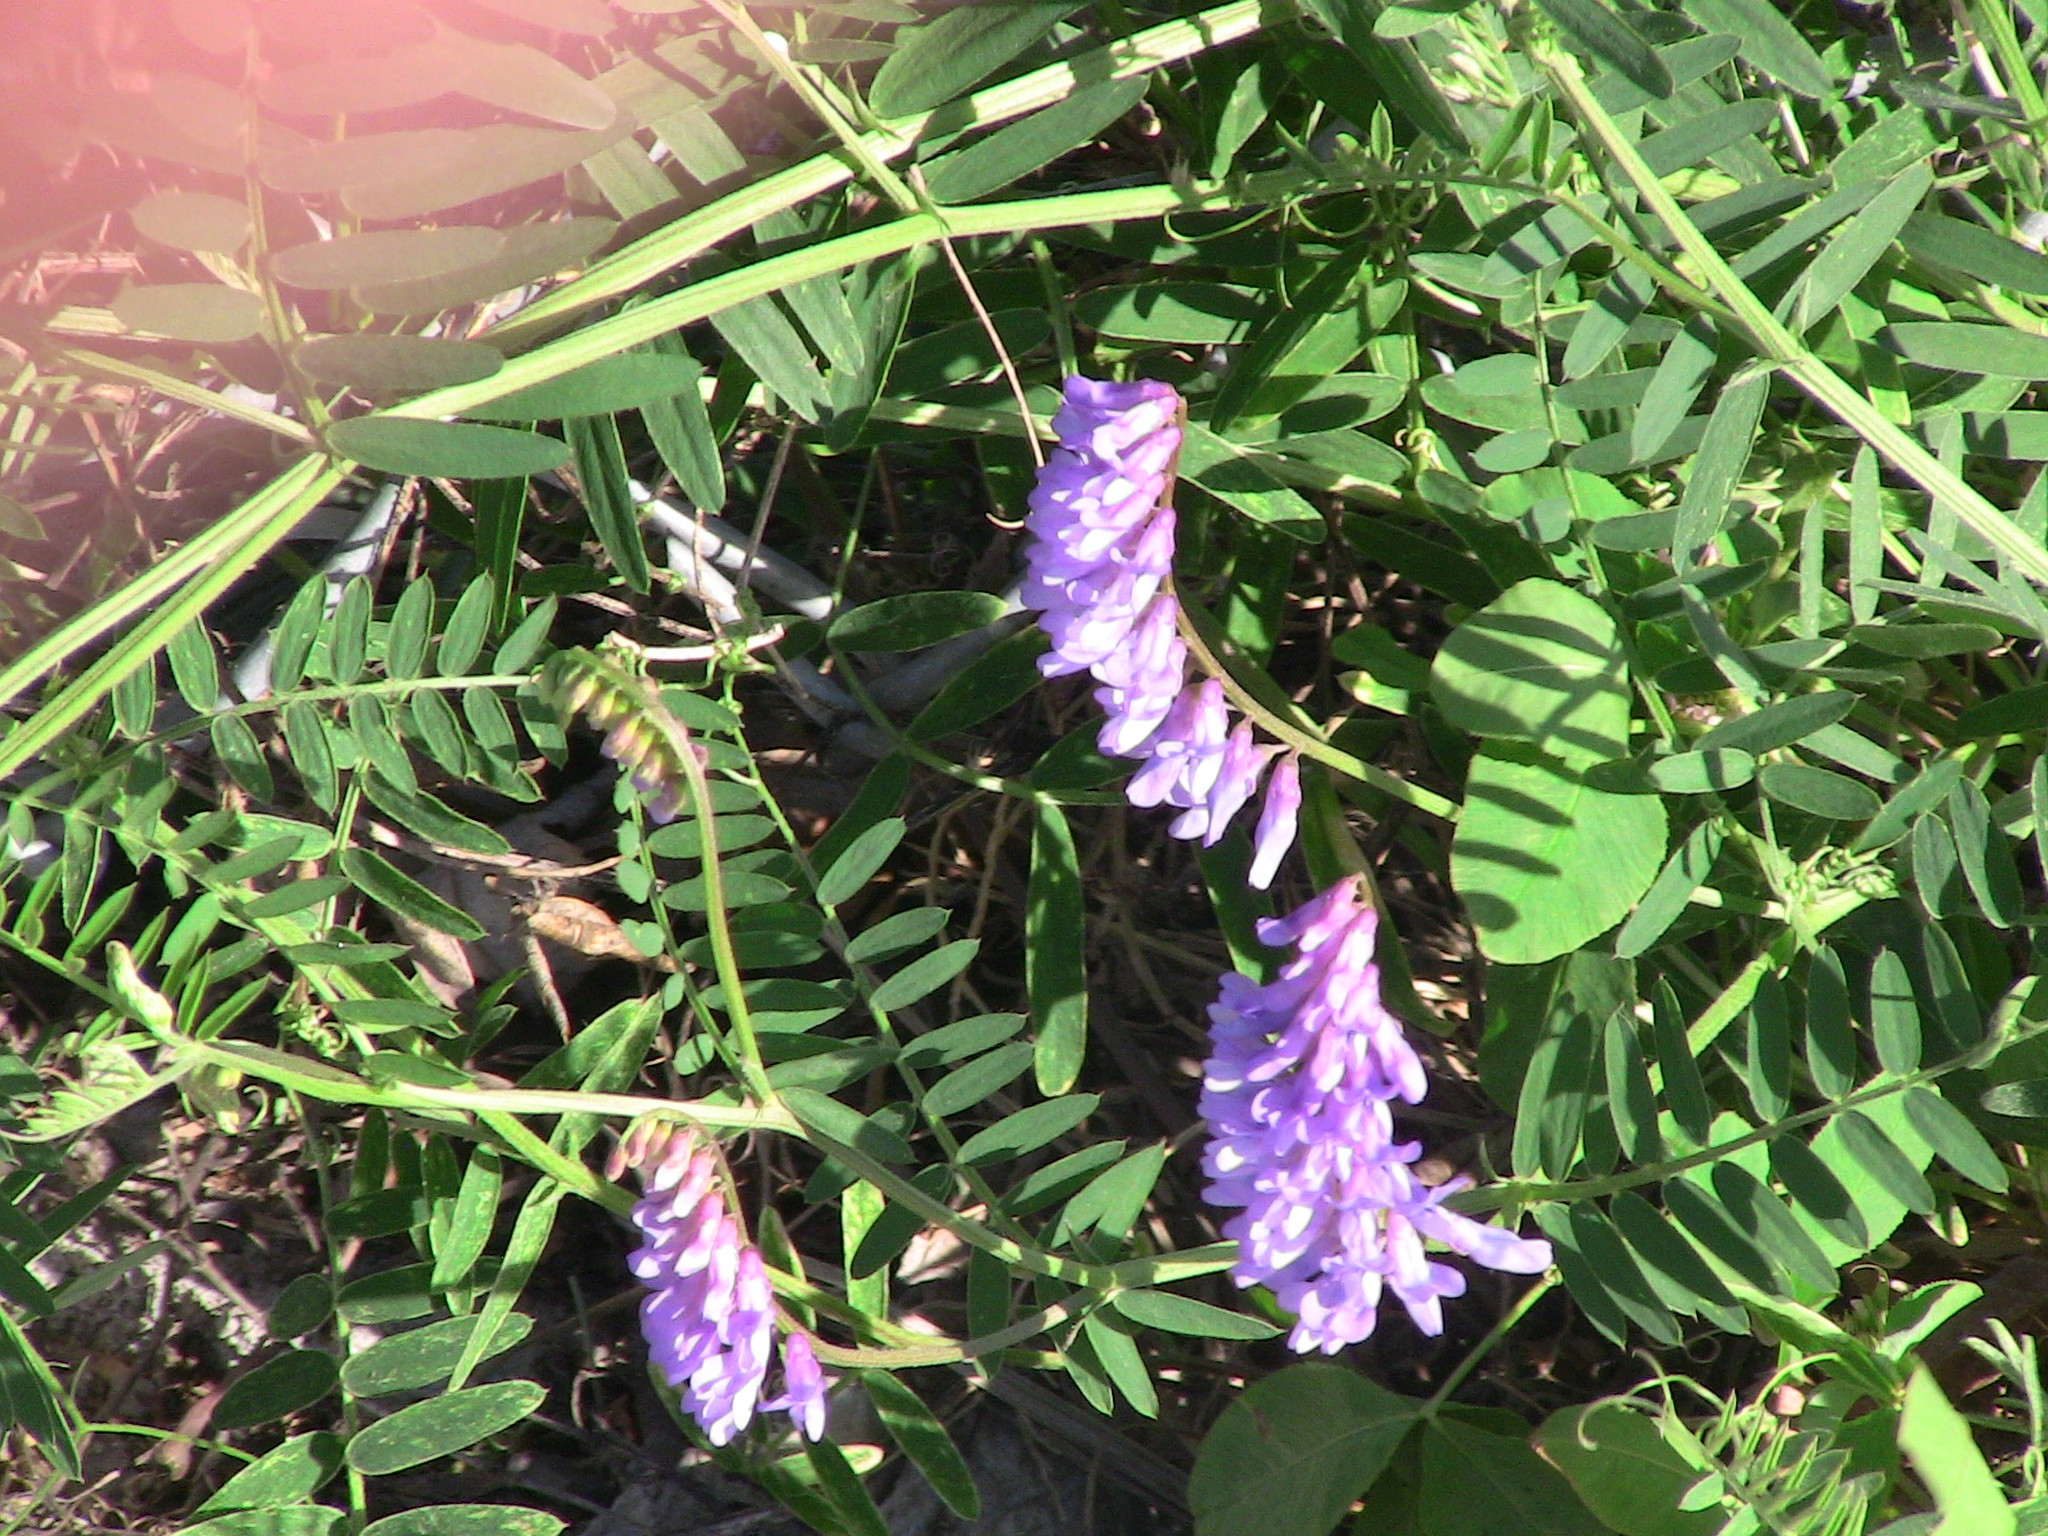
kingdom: Plantae
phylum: Tracheophyta
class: Magnoliopsida
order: Fabales
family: Fabaceae
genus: Vicia
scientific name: Vicia cracca
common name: Bird vetch
